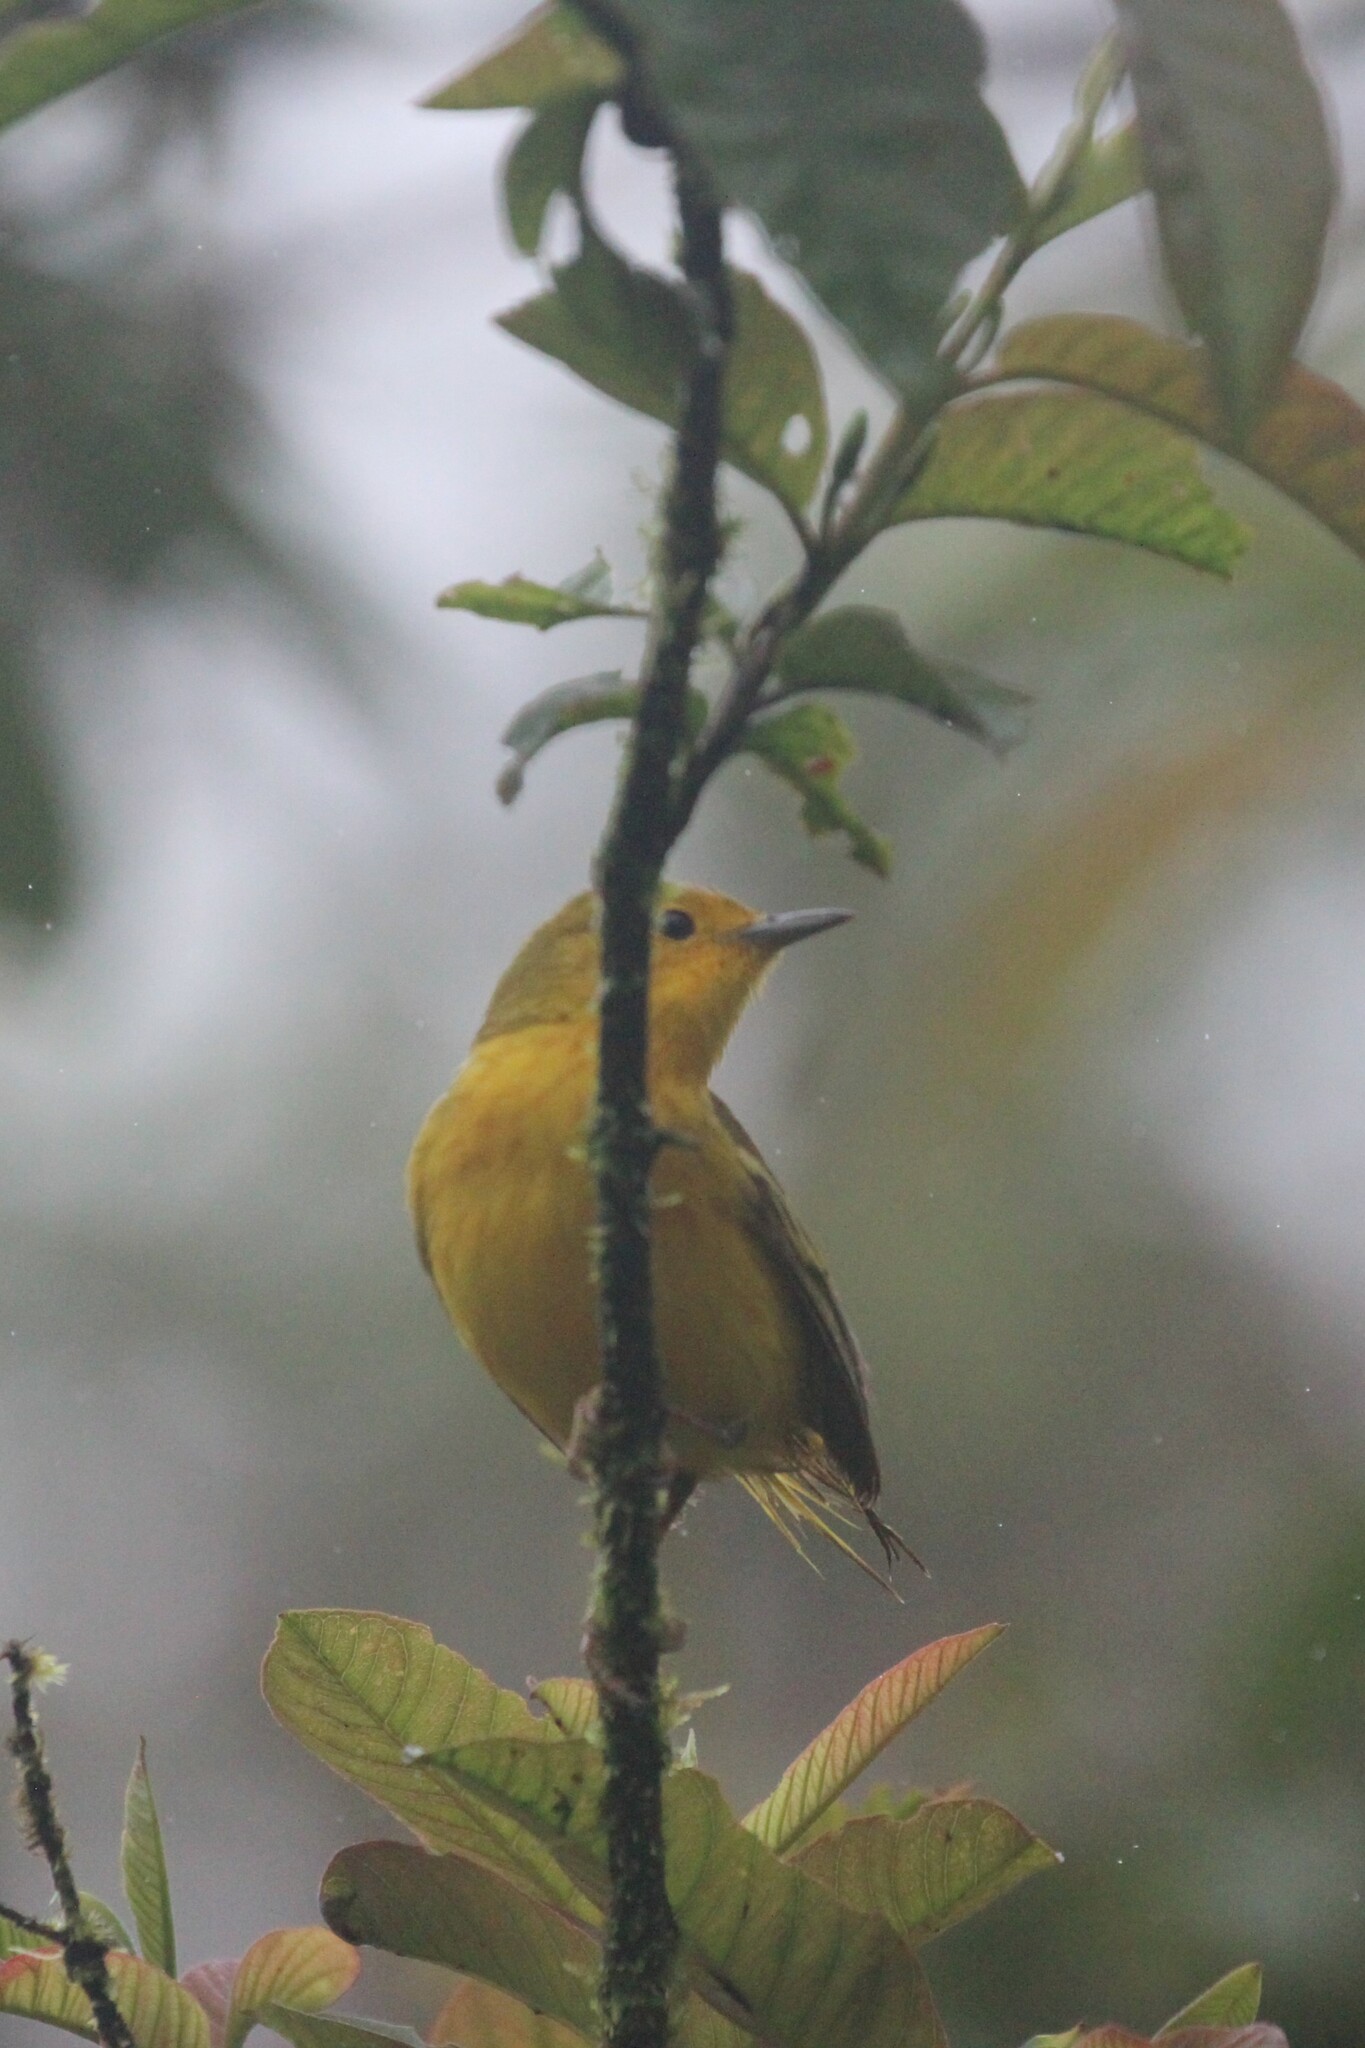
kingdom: Animalia
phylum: Chordata
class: Aves
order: Passeriformes
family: Parulidae
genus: Setophaga
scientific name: Setophaga petechia
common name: Yellow warbler
